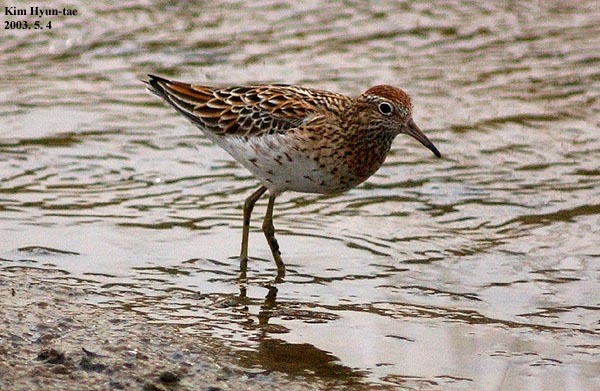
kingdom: Animalia
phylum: Chordata
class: Aves
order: Charadriiformes
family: Scolopacidae
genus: Calidris
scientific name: Calidris acuminata
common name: Sharp-tailed sandpiper
